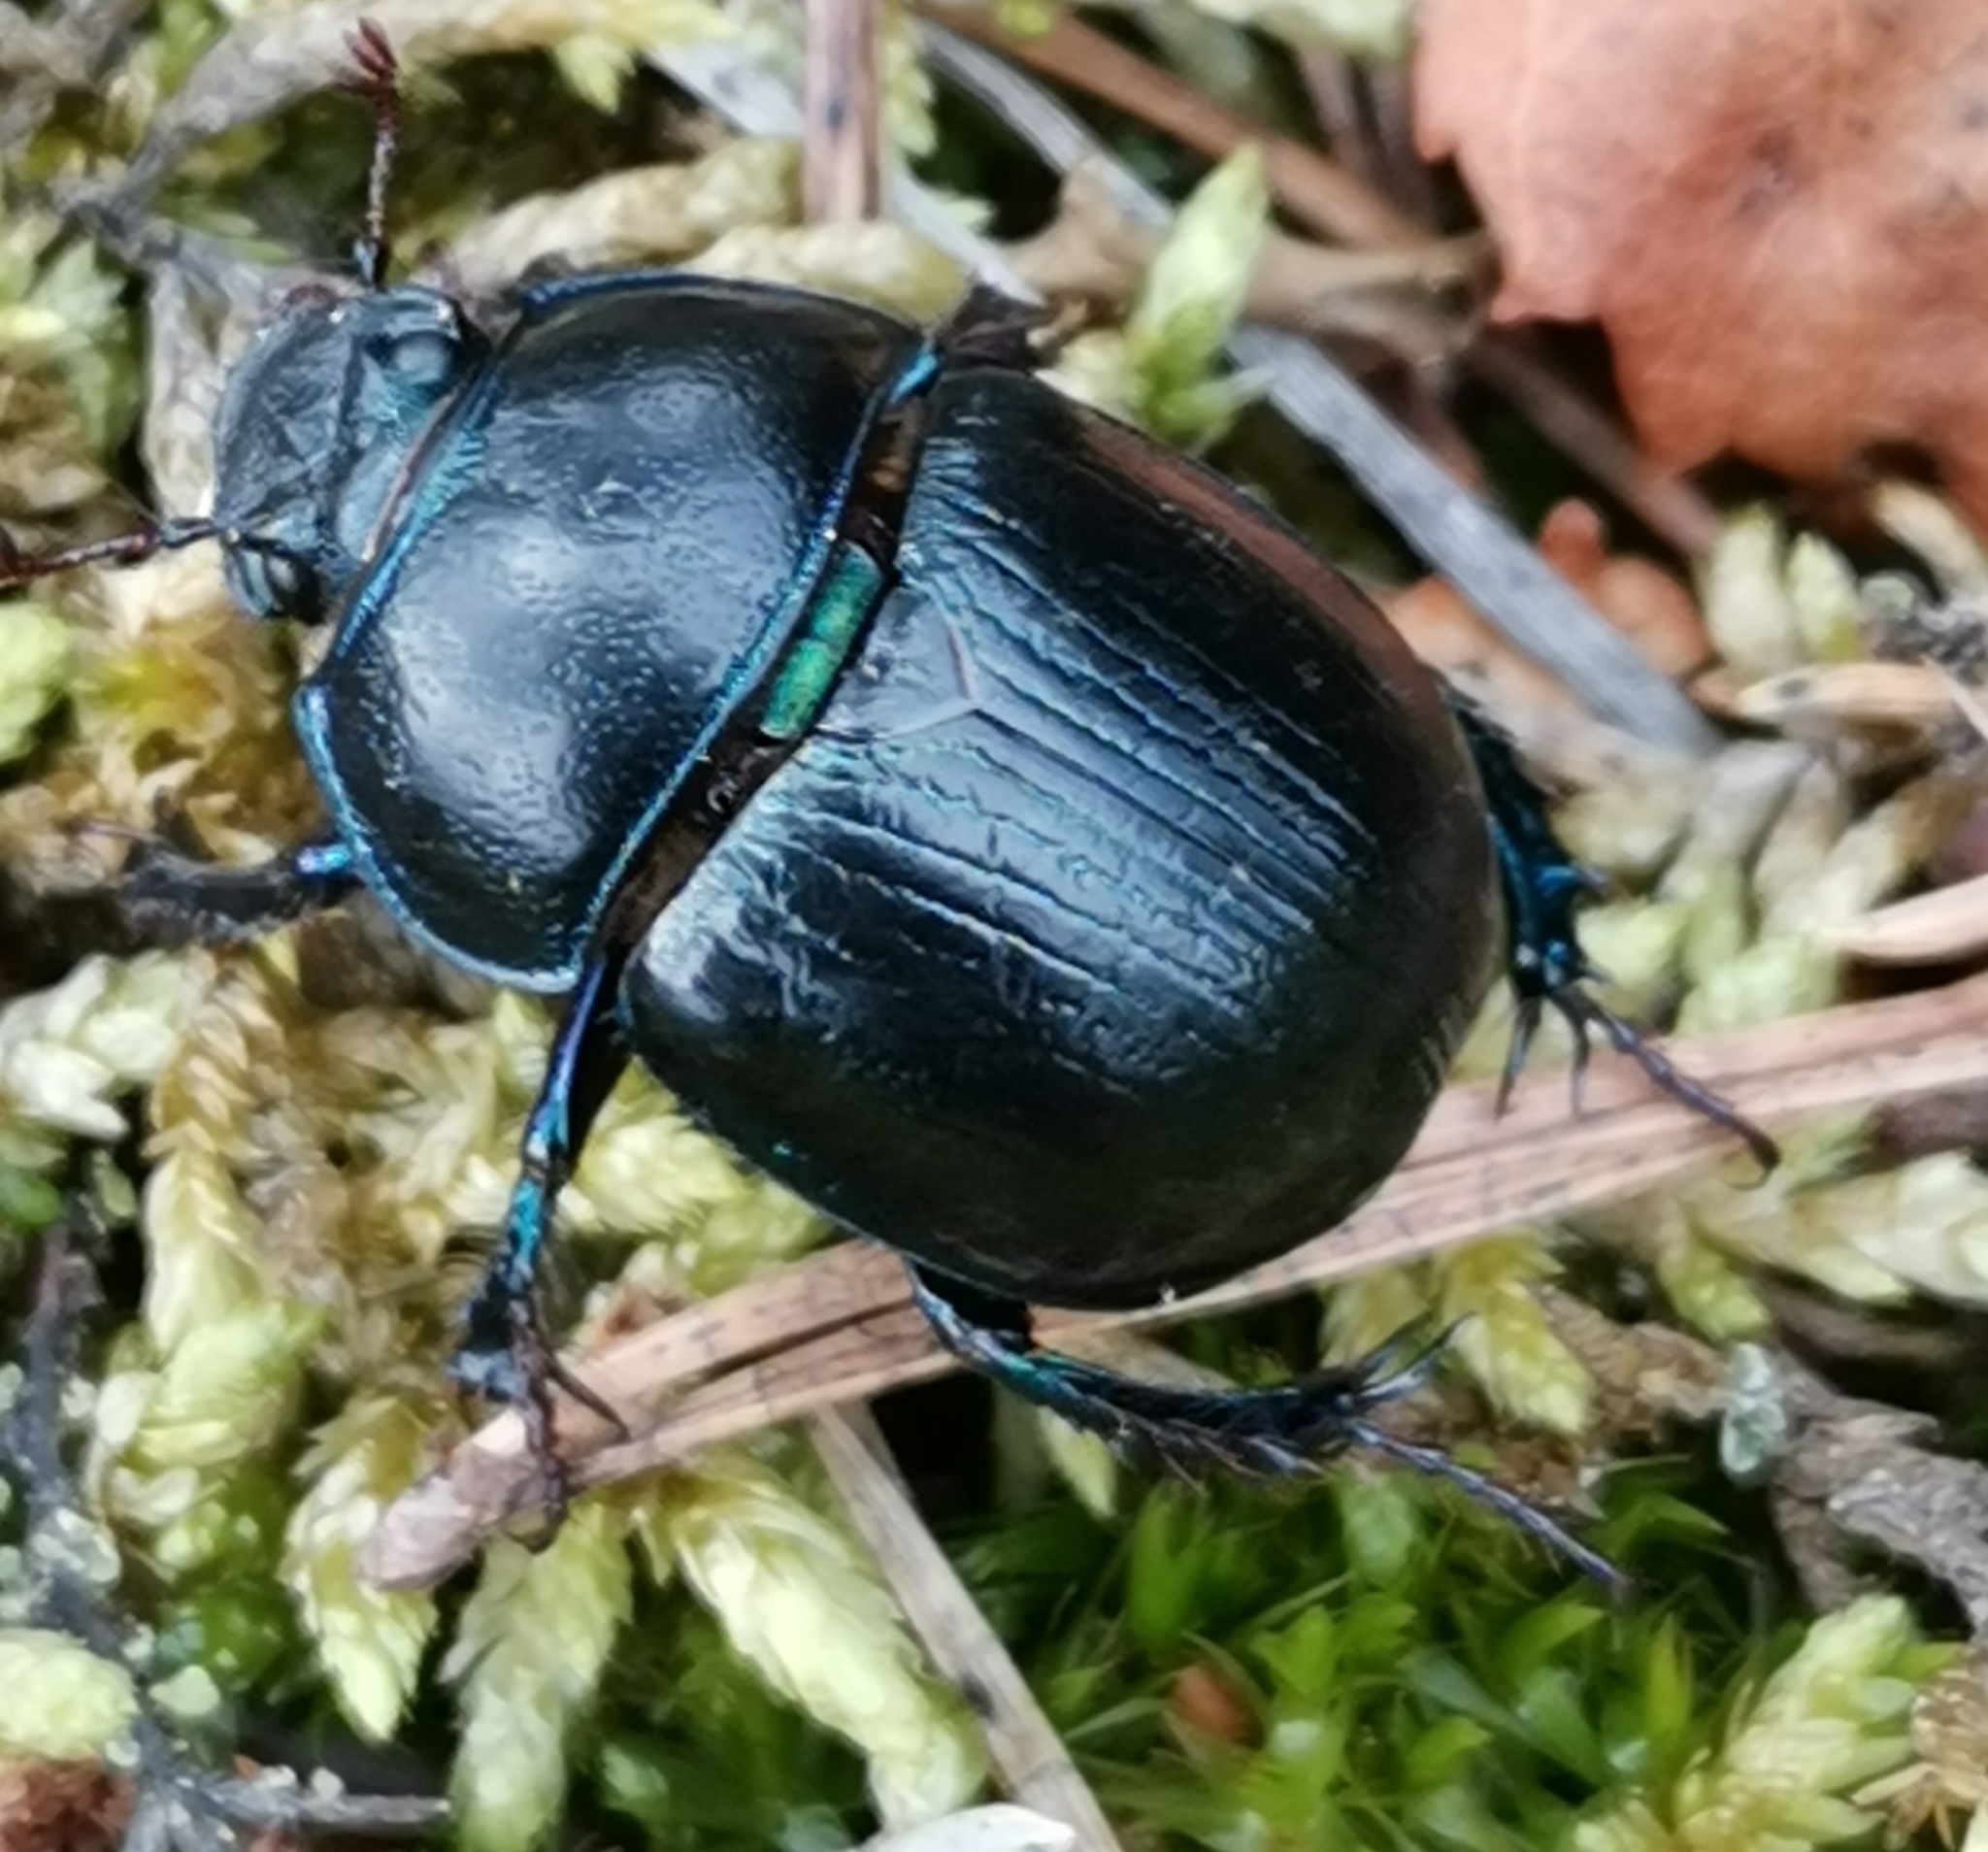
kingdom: Animalia
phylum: Arthropoda
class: Insecta
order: Coleoptera
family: Geotrupidae
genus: Anoplotrupes
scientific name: Anoplotrupes stercorosus
